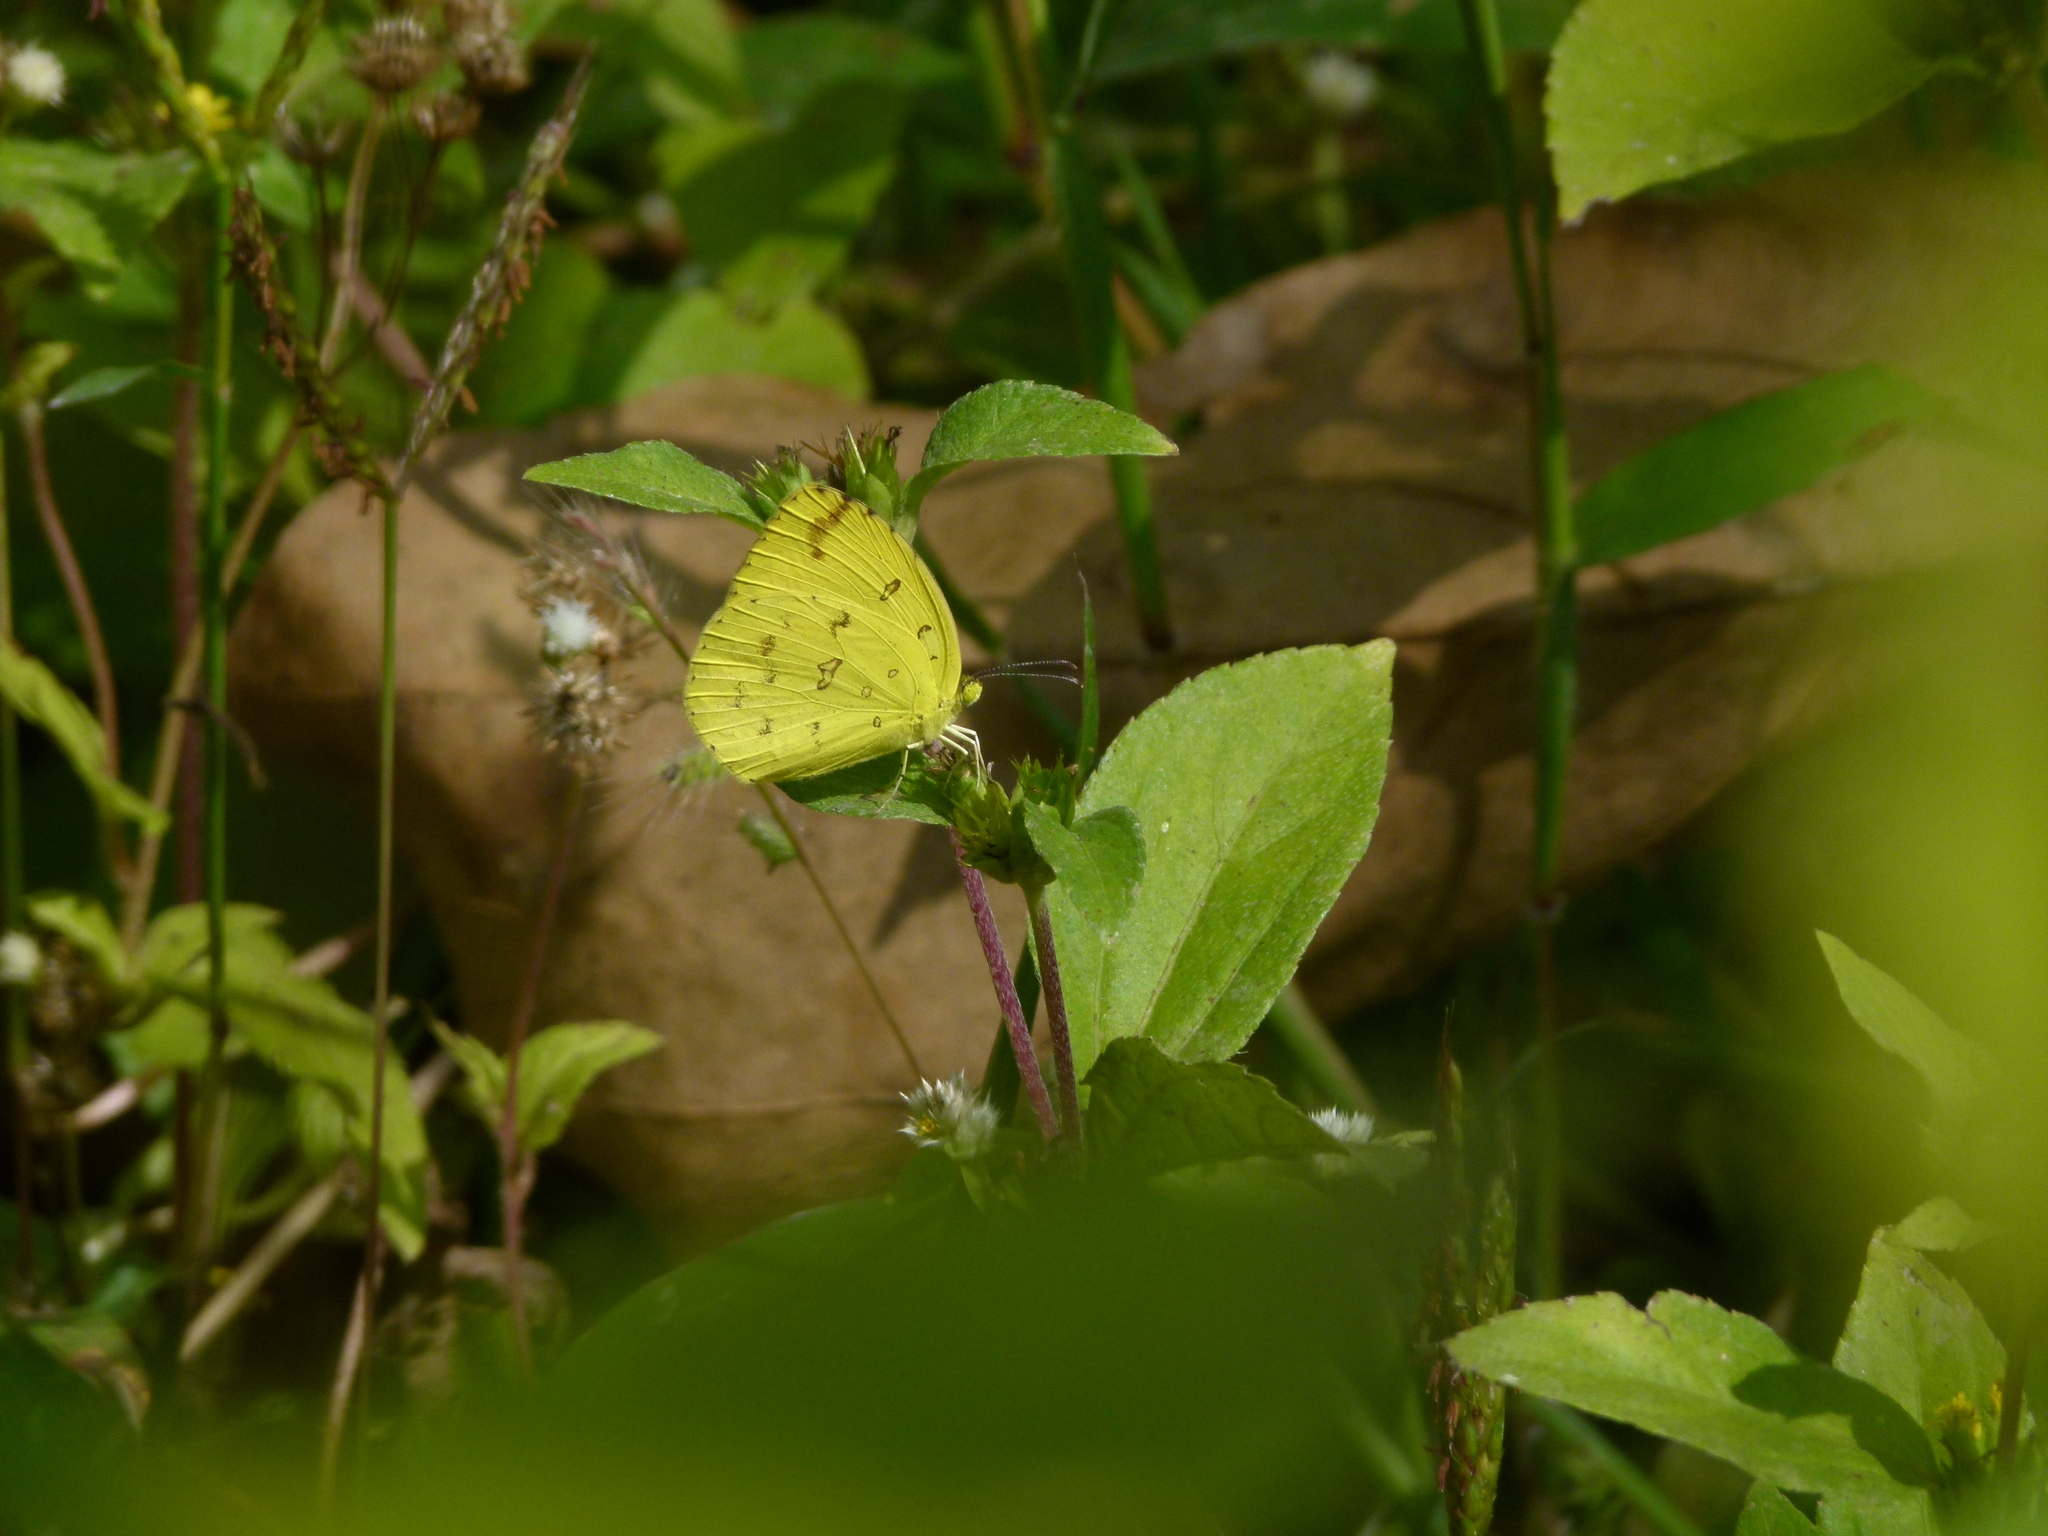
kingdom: Animalia
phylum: Arthropoda
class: Insecta
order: Lepidoptera
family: Pieridae
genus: Eurema
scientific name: Eurema hecabe
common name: Pale grass yellow
